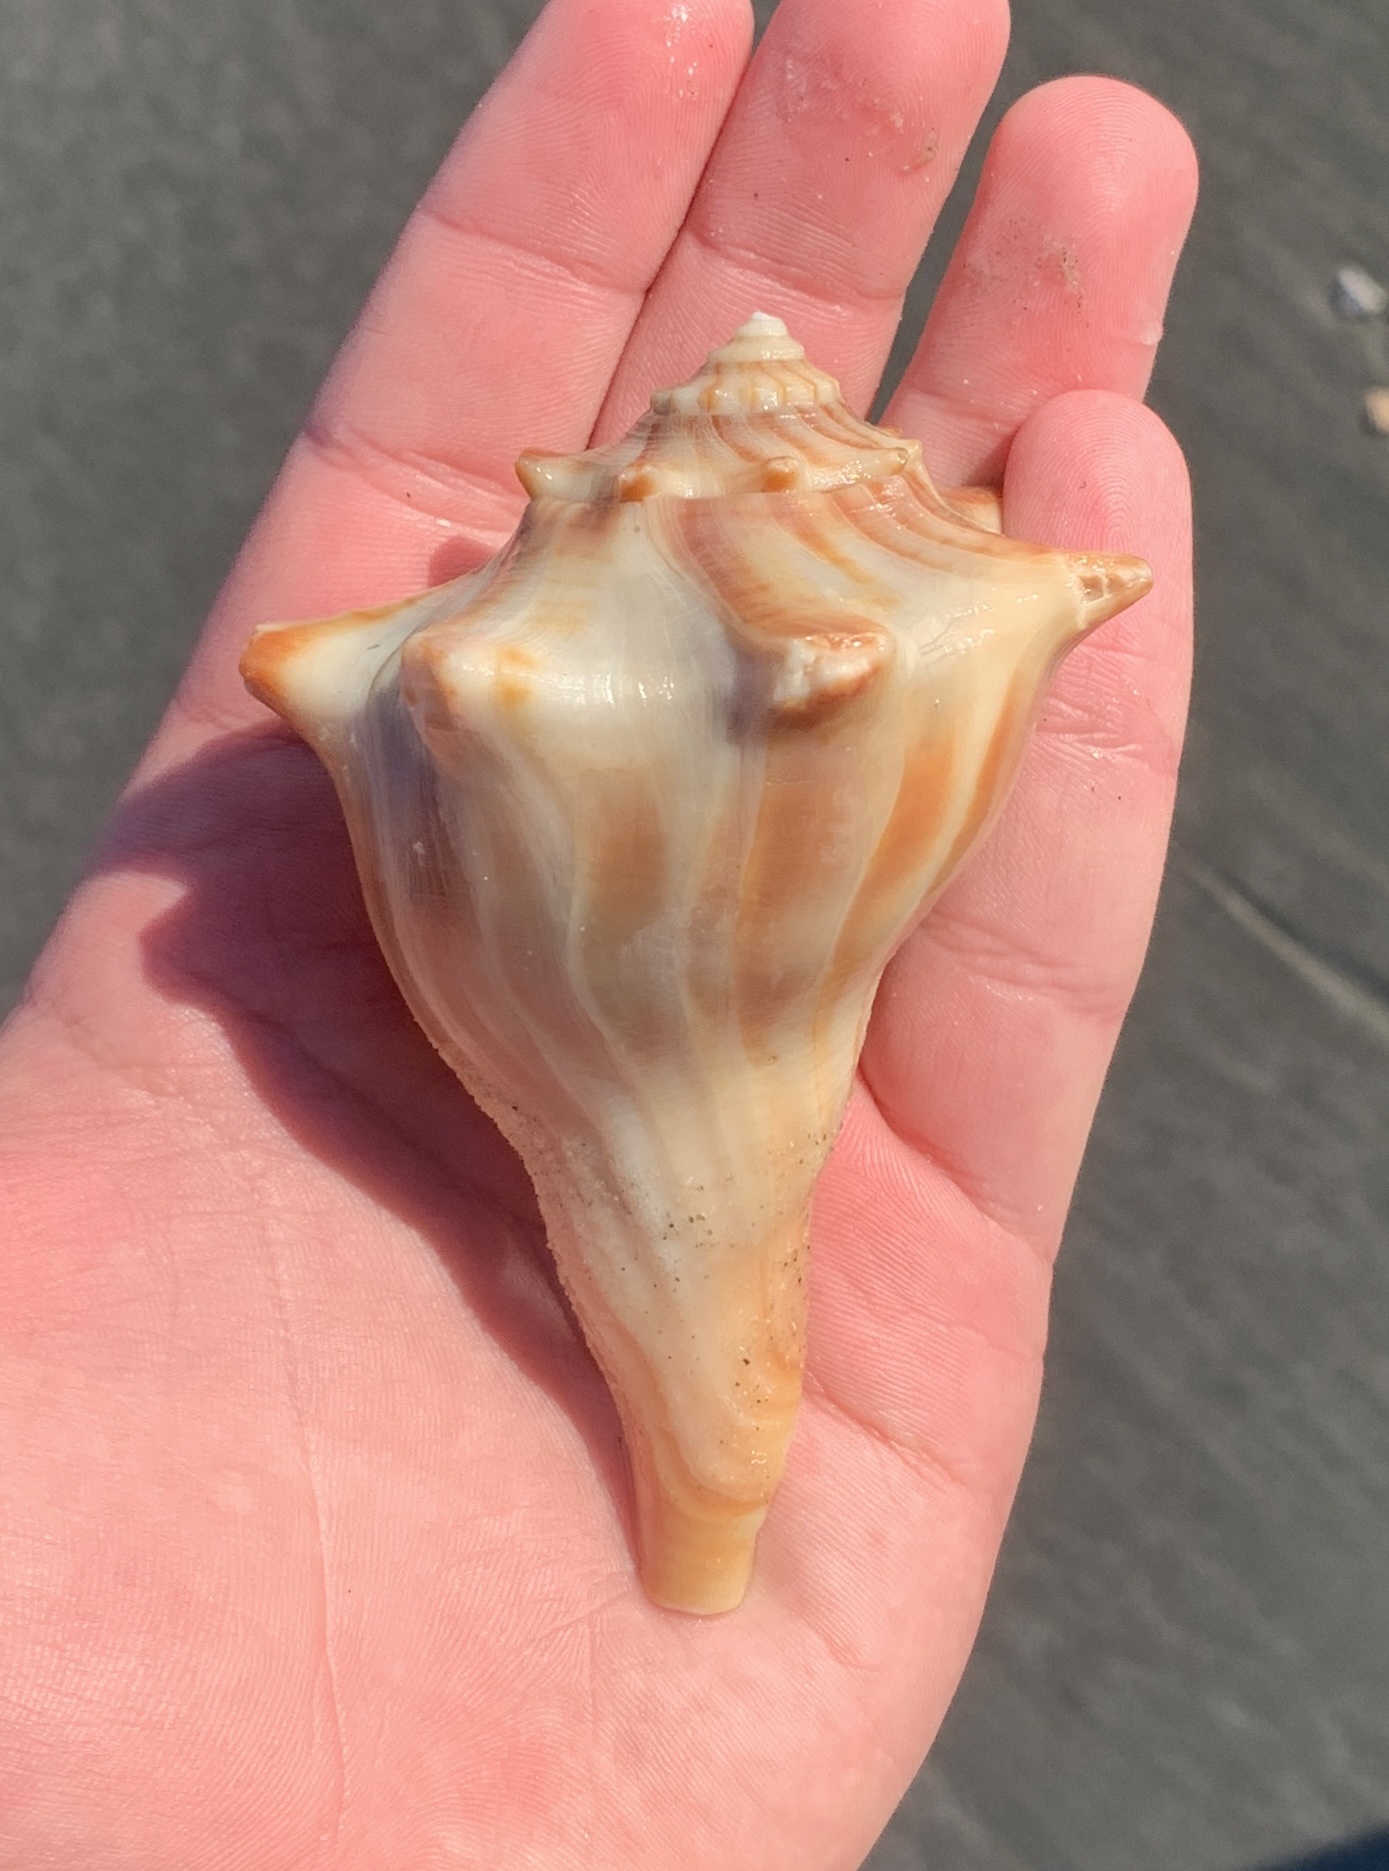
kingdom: Animalia
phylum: Mollusca
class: Gastropoda
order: Neogastropoda
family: Busyconidae
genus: Busycon
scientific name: Busycon carica
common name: Knobbed whelk
